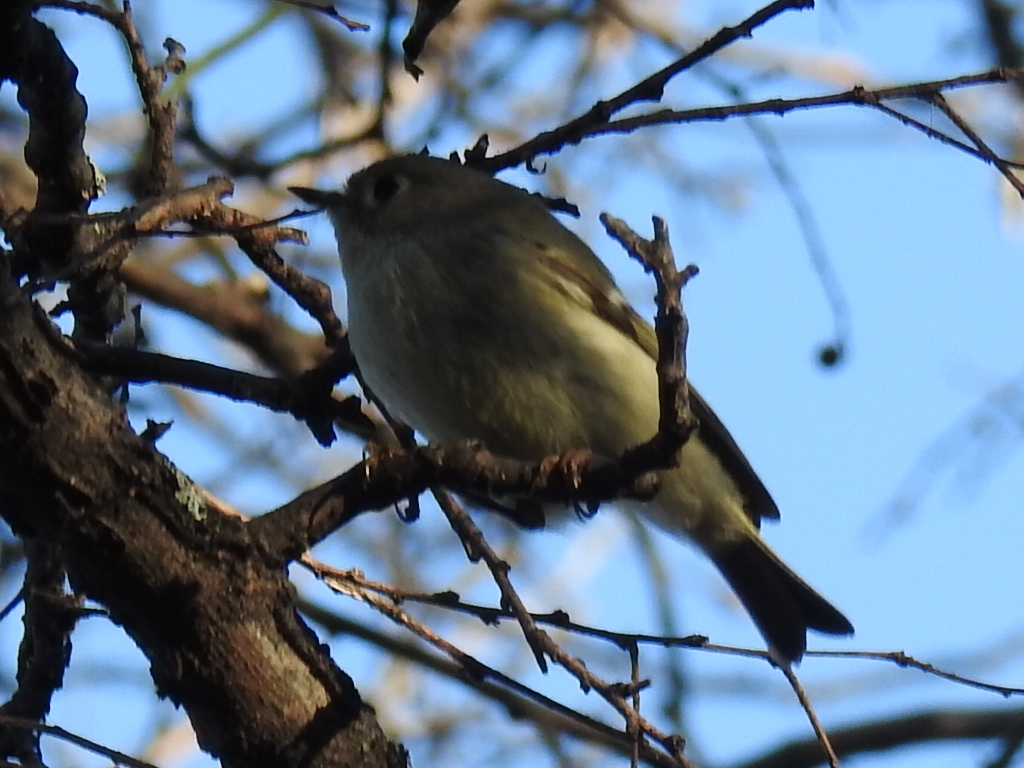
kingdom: Animalia
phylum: Chordata
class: Aves
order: Passeriformes
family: Regulidae
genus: Regulus
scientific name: Regulus calendula
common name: Ruby-crowned kinglet
